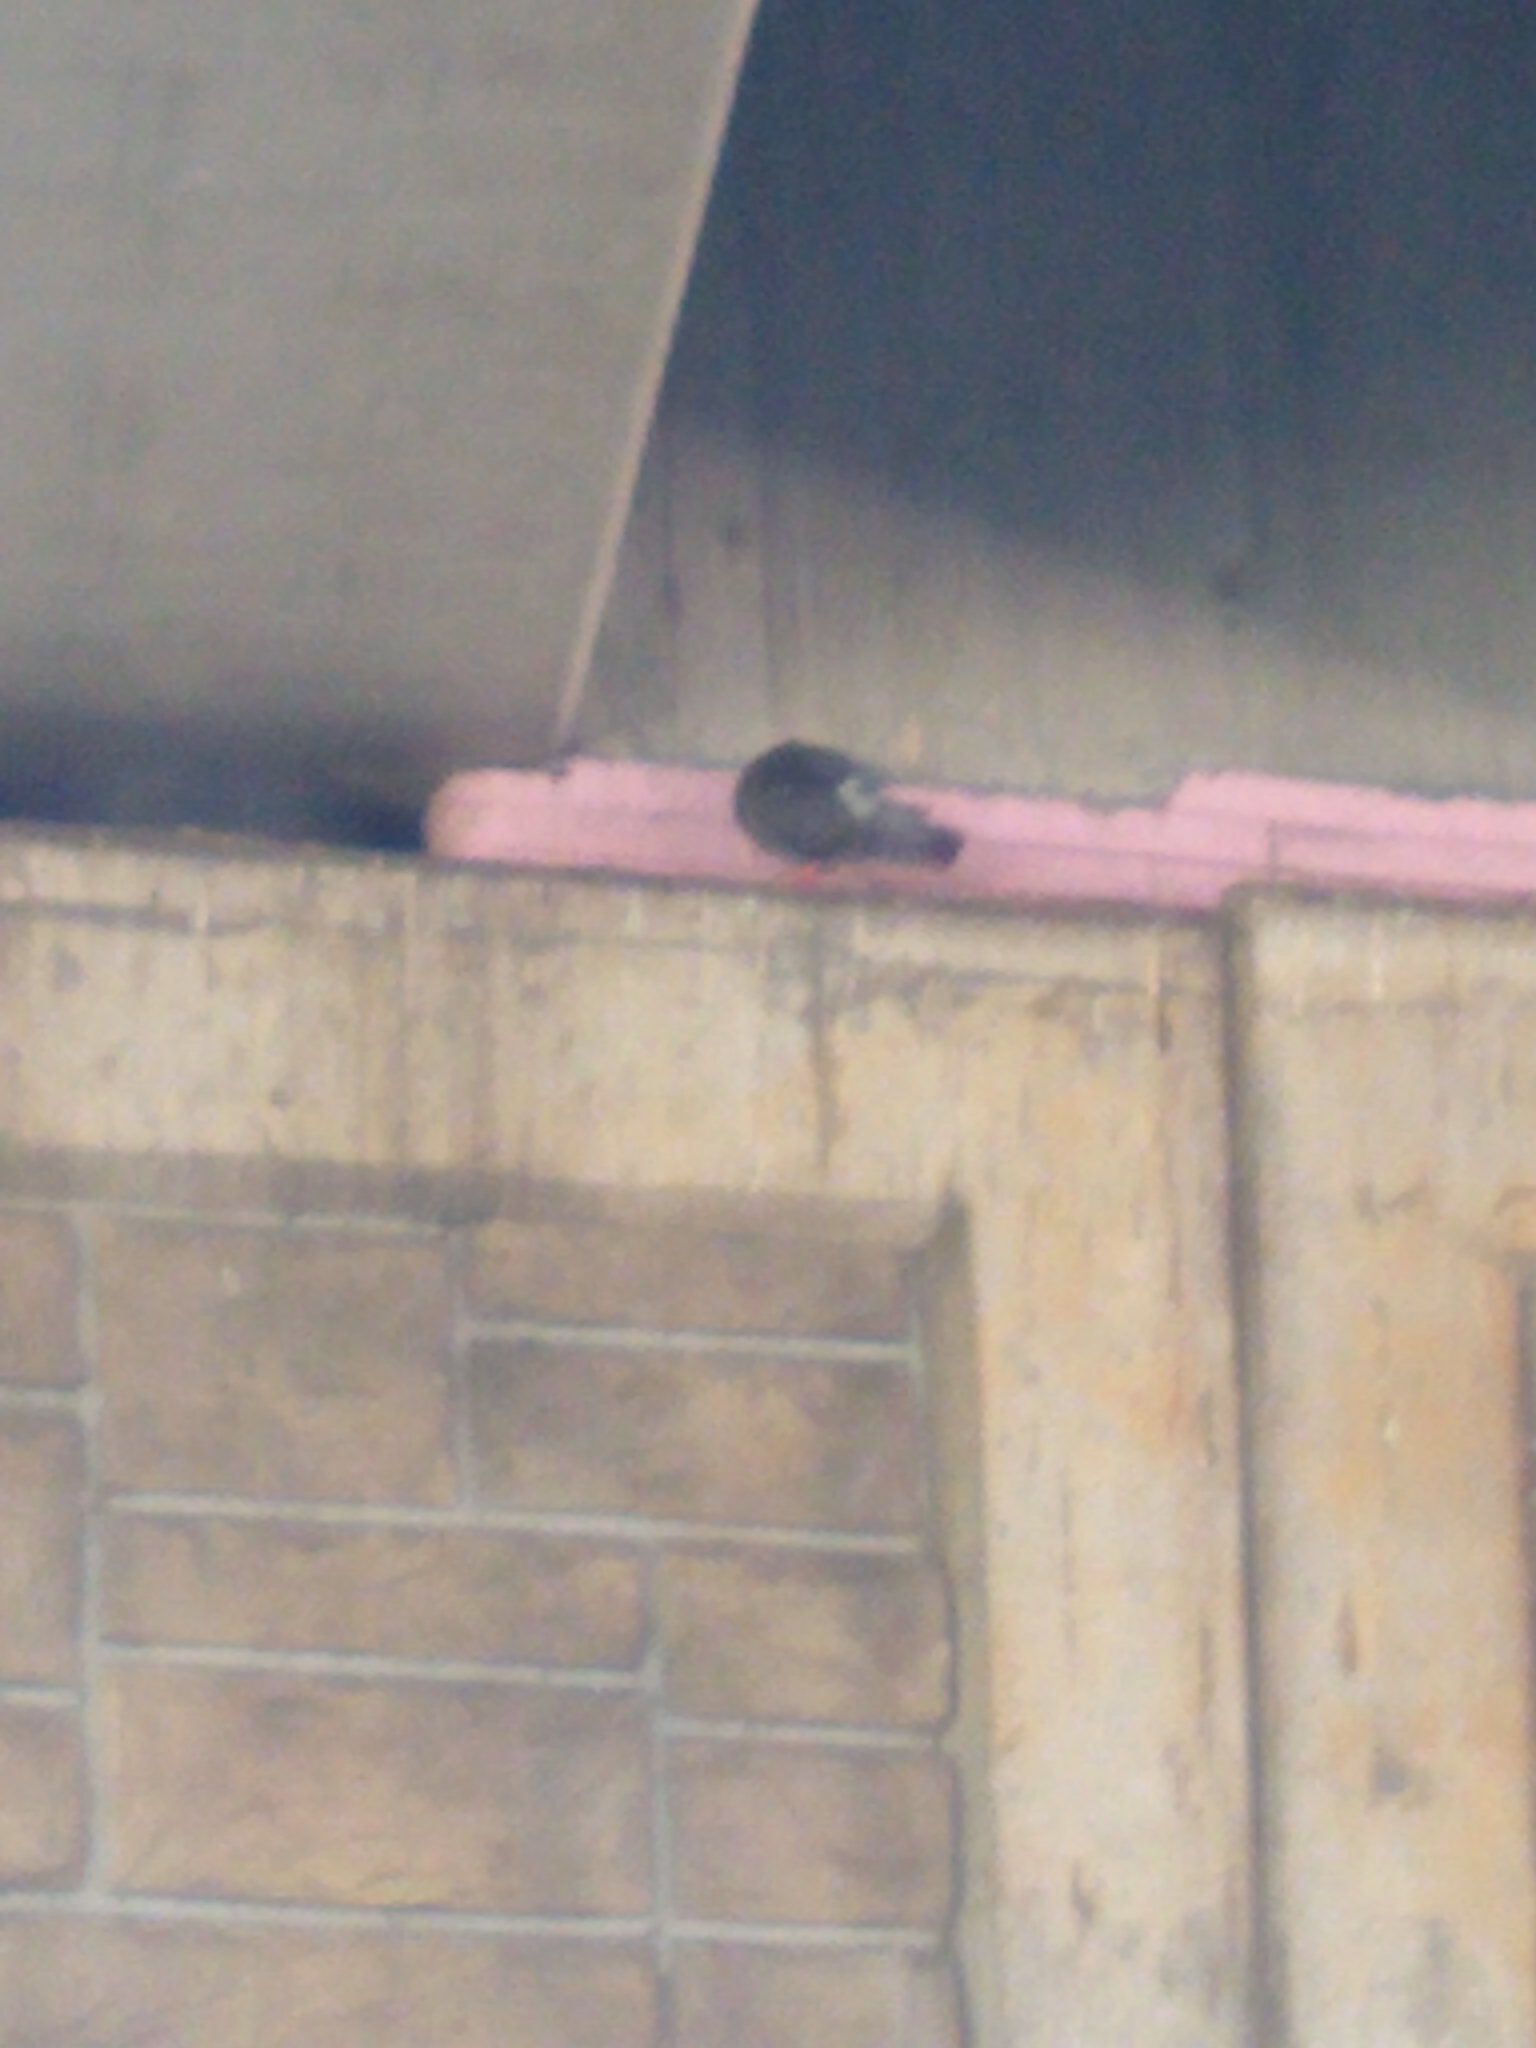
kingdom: Animalia
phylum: Chordata
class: Aves
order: Columbiformes
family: Columbidae
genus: Columba
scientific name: Columba livia
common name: Rock pigeon
